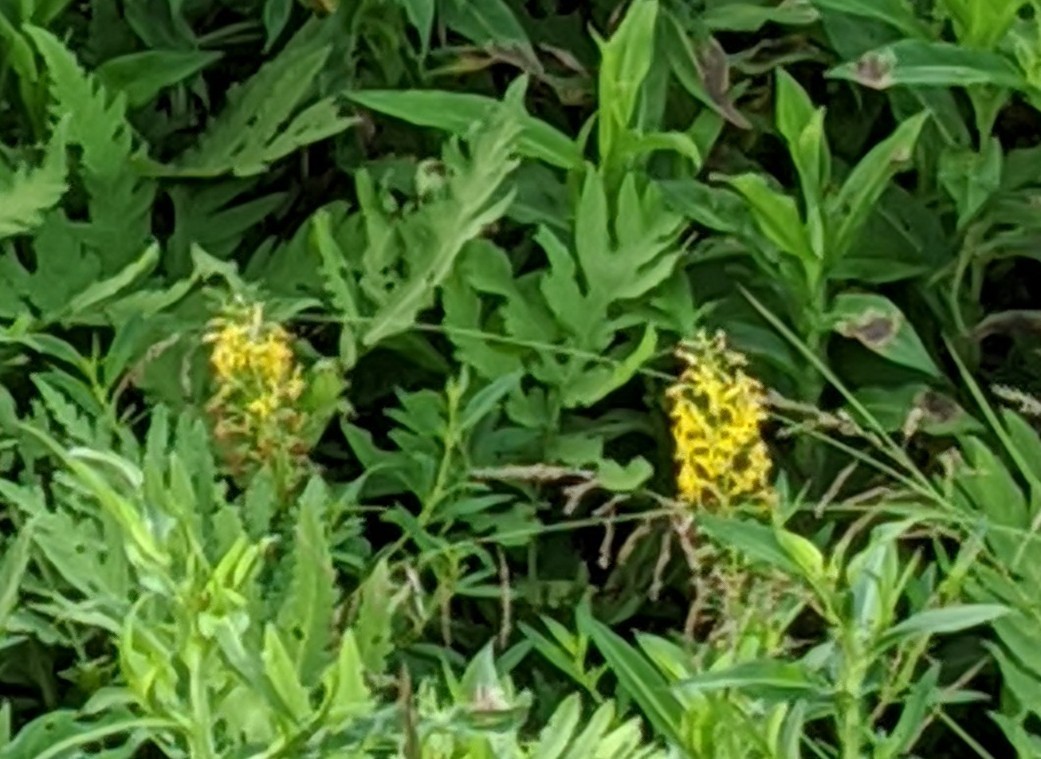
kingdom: Plantae
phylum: Tracheophyta
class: Magnoliopsida
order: Ericales
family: Primulaceae
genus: Lysimachia
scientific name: Lysimachia terrestris
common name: Lake loosestrife
